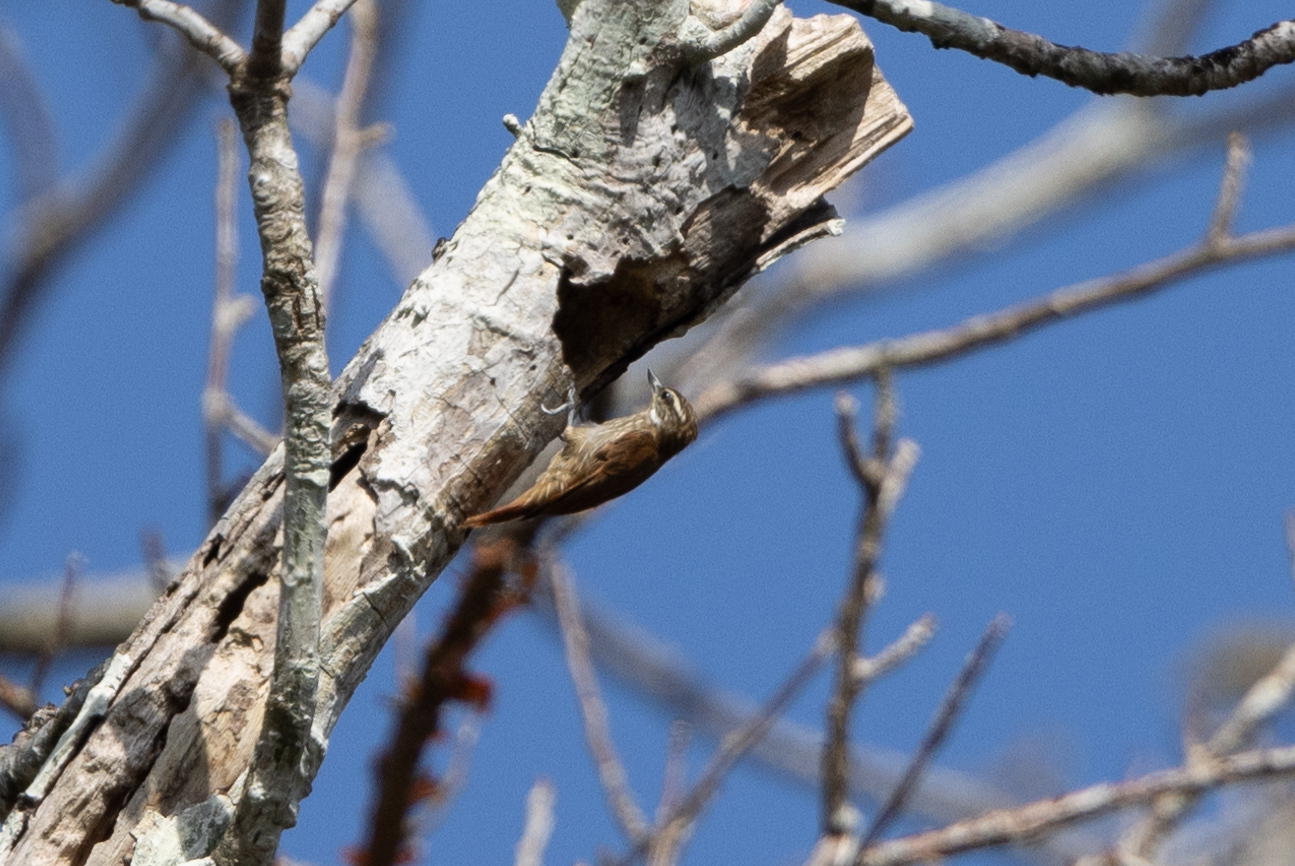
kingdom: Animalia
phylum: Chordata
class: Aves
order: Passeriformes
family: Furnariidae
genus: Xenops
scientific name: Xenops rutilans
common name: Streaked xenops
